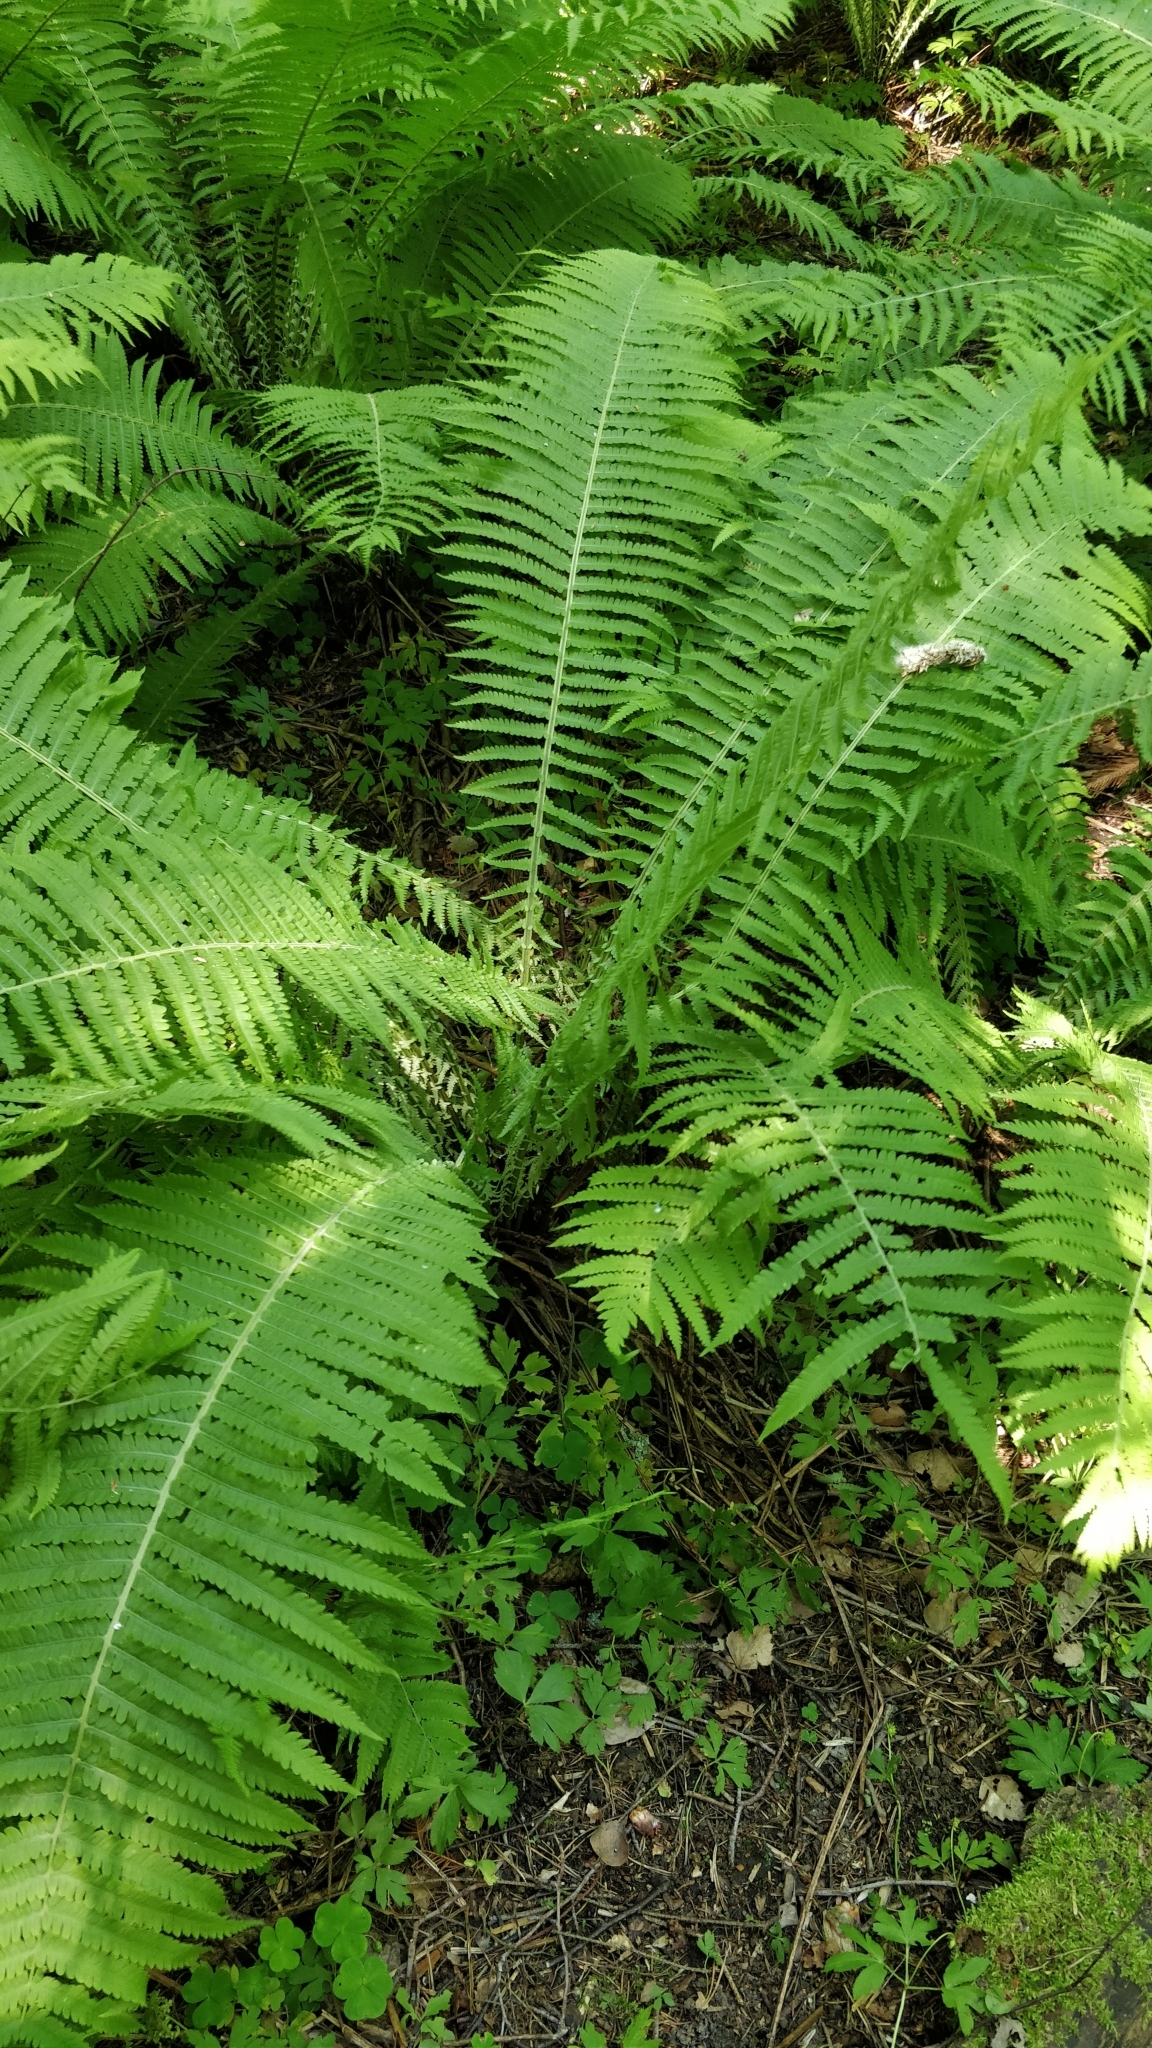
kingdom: Plantae
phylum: Tracheophyta
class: Polypodiopsida
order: Polypodiales
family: Onocleaceae
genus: Matteuccia
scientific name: Matteuccia struthiopteris
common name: Ostrich fern
